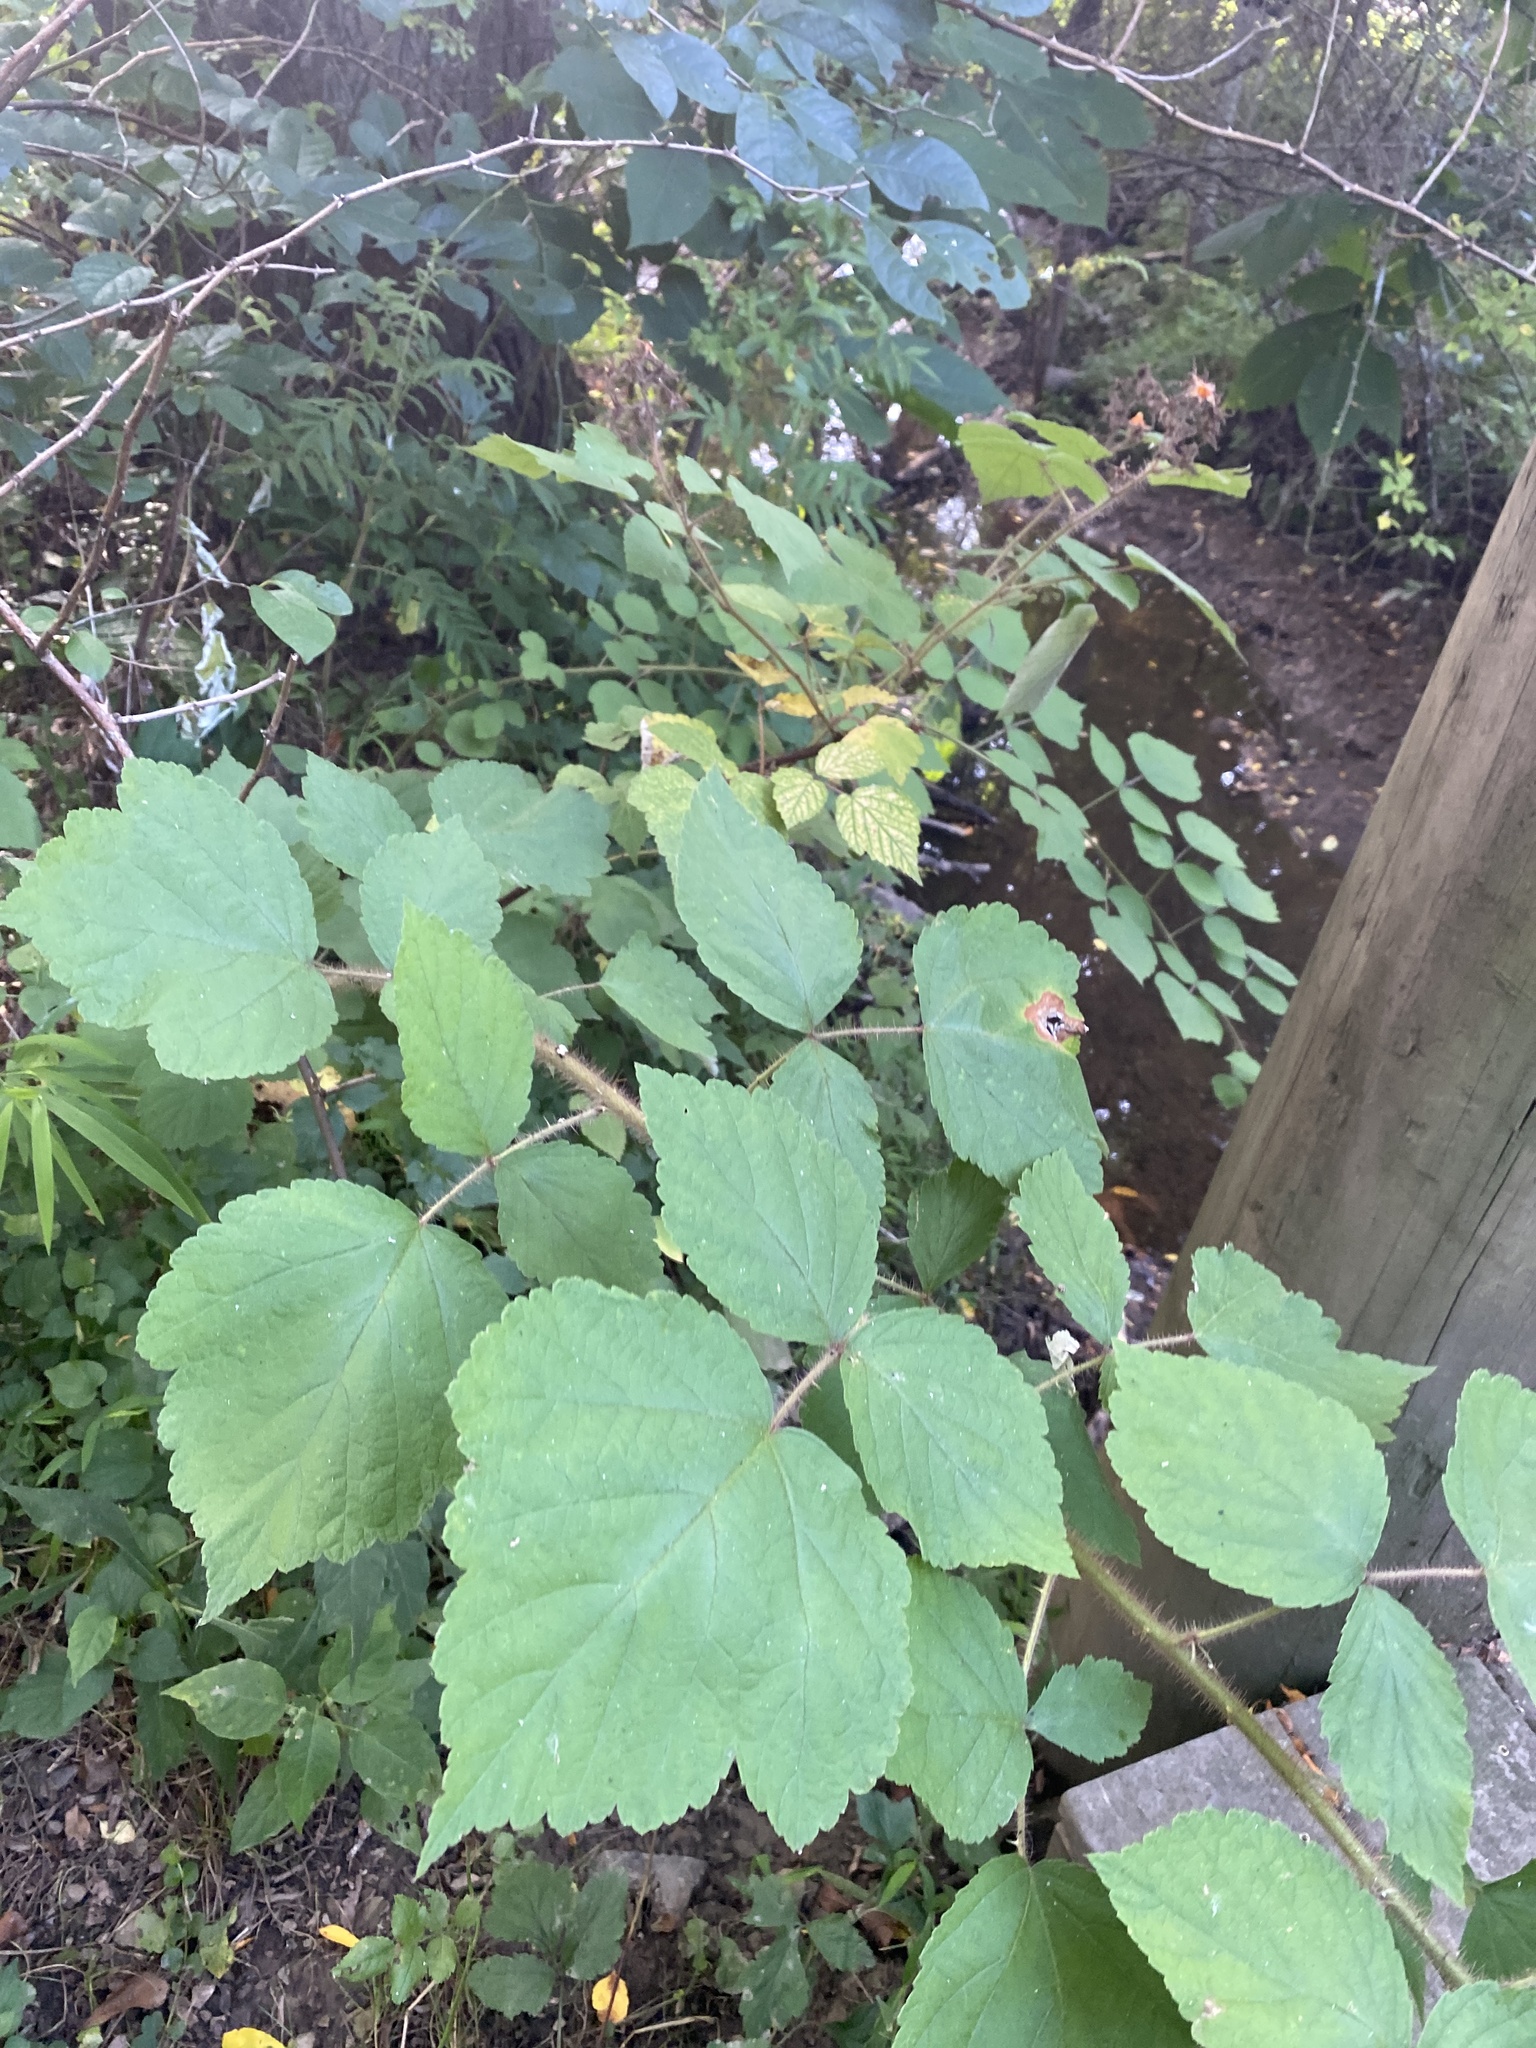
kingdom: Plantae
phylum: Tracheophyta
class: Magnoliopsida
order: Rosales
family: Rosaceae
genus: Rubus
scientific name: Rubus phoenicolasius
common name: Japanese wineberry
